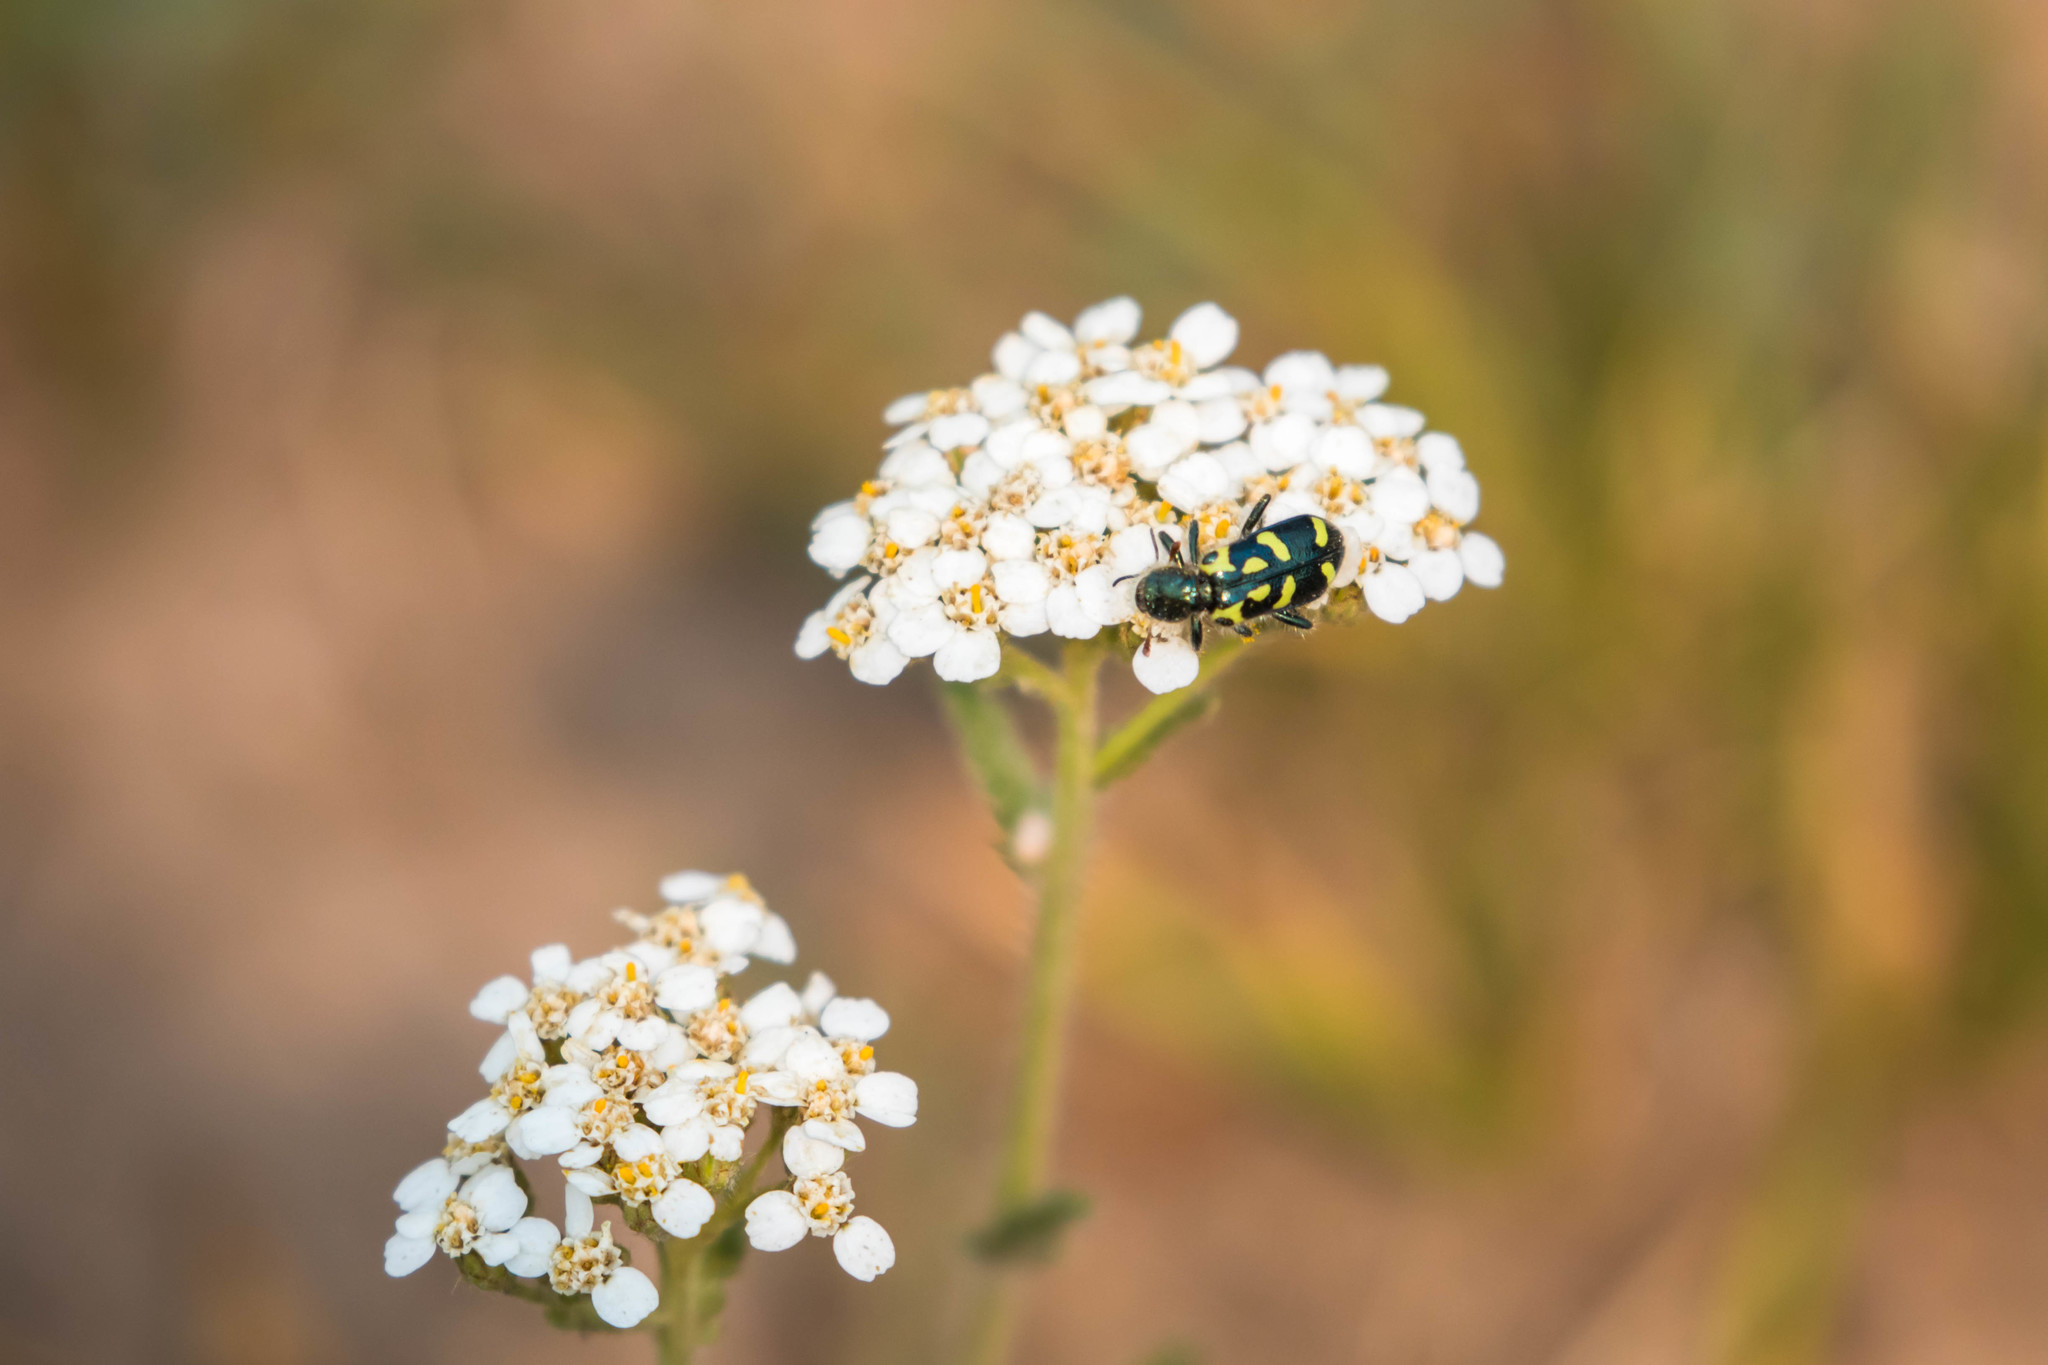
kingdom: Animalia
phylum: Arthropoda
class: Insecta
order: Coleoptera
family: Cleridae
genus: Trichodes
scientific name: Trichodes ornatus
